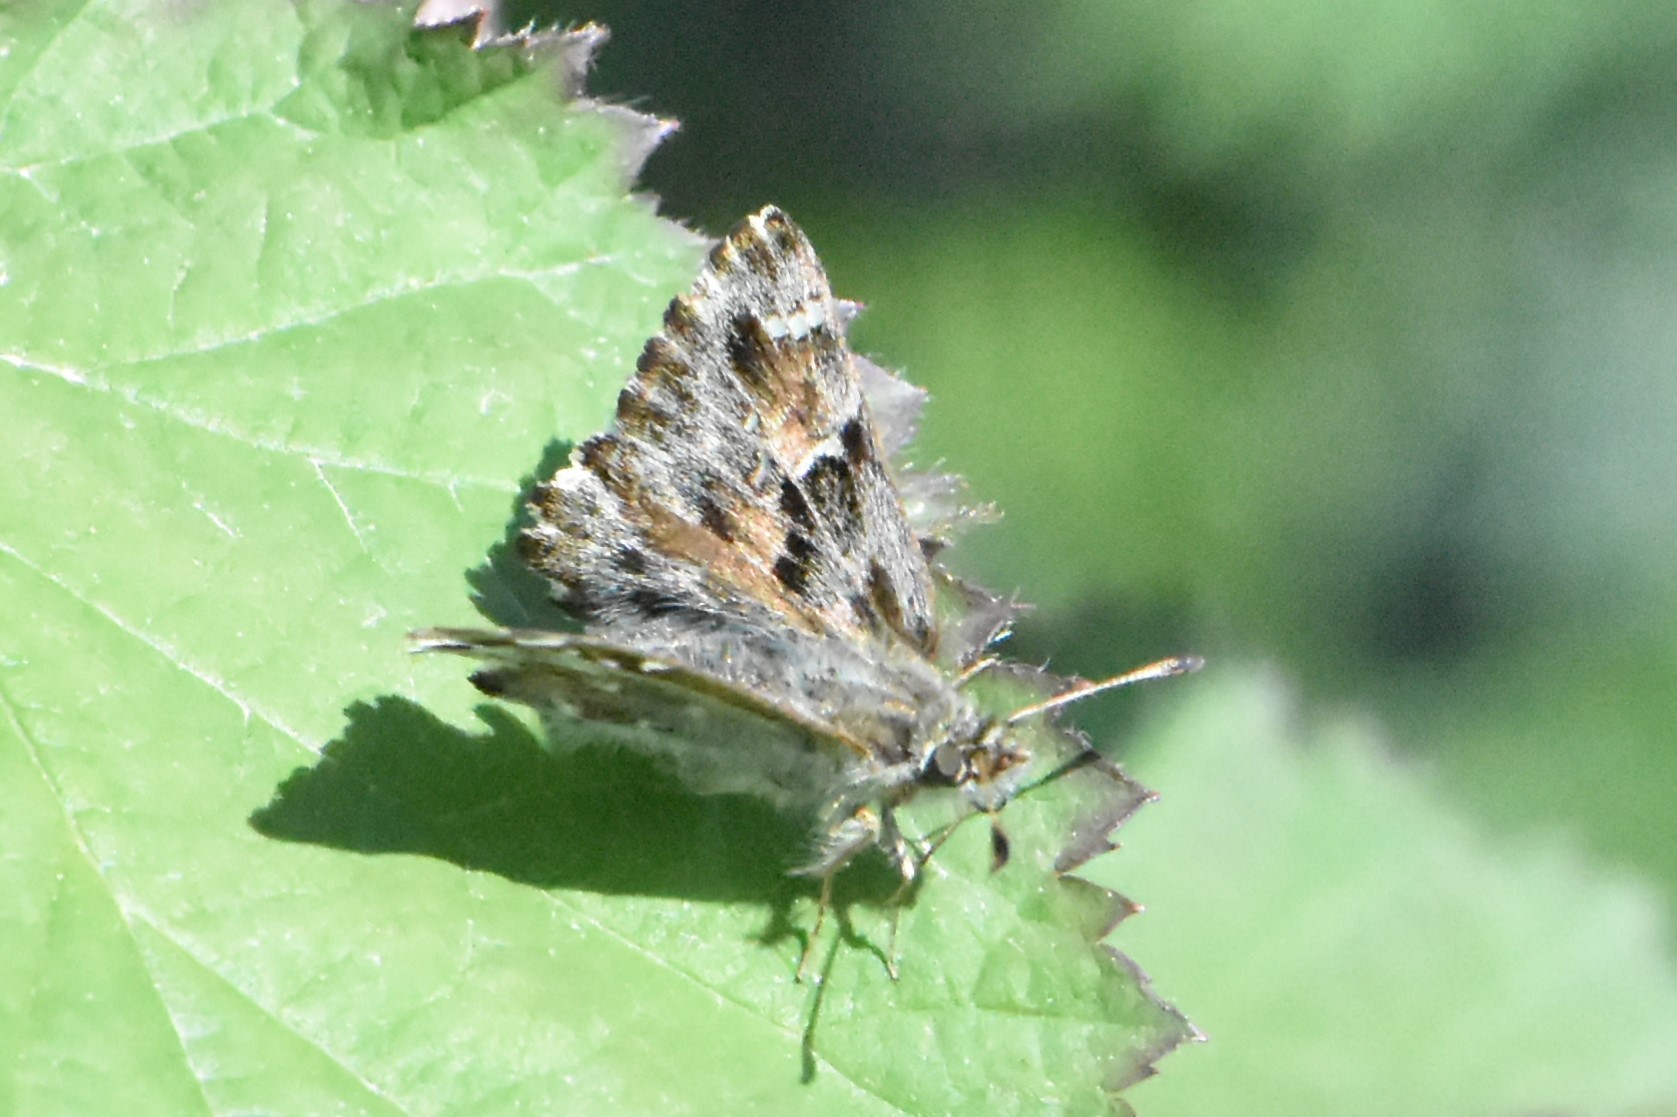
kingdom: Animalia
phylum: Arthropoda
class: Insecta
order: Lepidoptera
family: Hesperiidae
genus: Carcharodus
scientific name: Carcharodus alceae
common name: Mallow skipper
